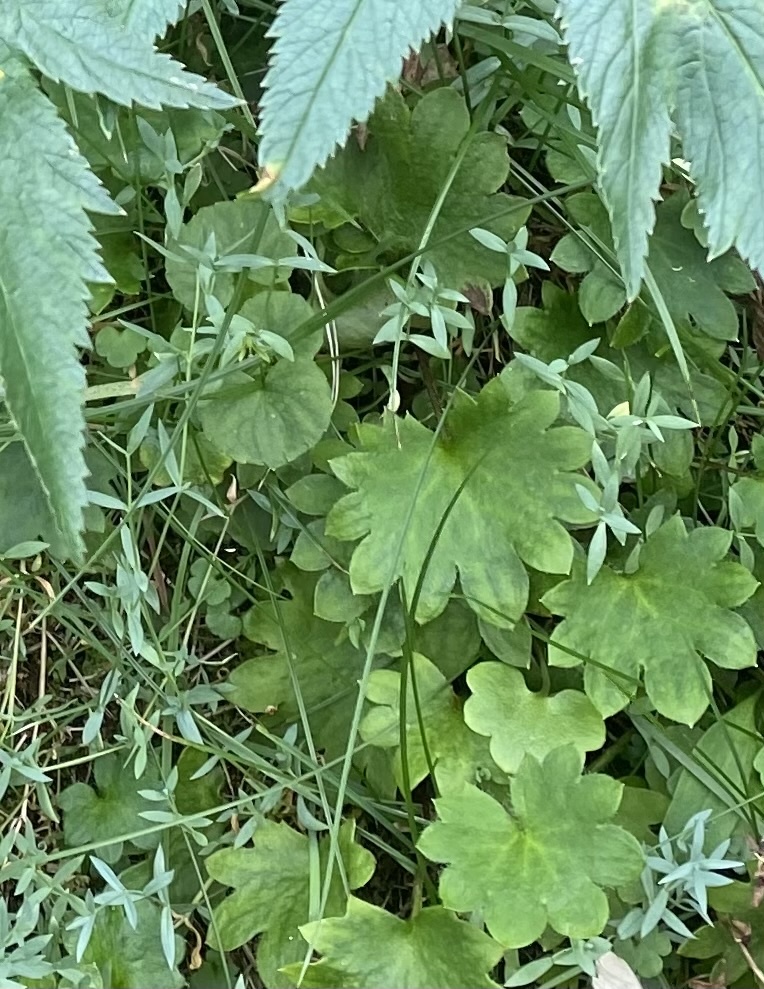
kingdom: Plantae
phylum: Tracheophyta
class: Magnoliopsida
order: Caryophyllales
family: Caryophyllaceae
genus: Stellaria
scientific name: Stellaria longipes
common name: Goldie's starwort
